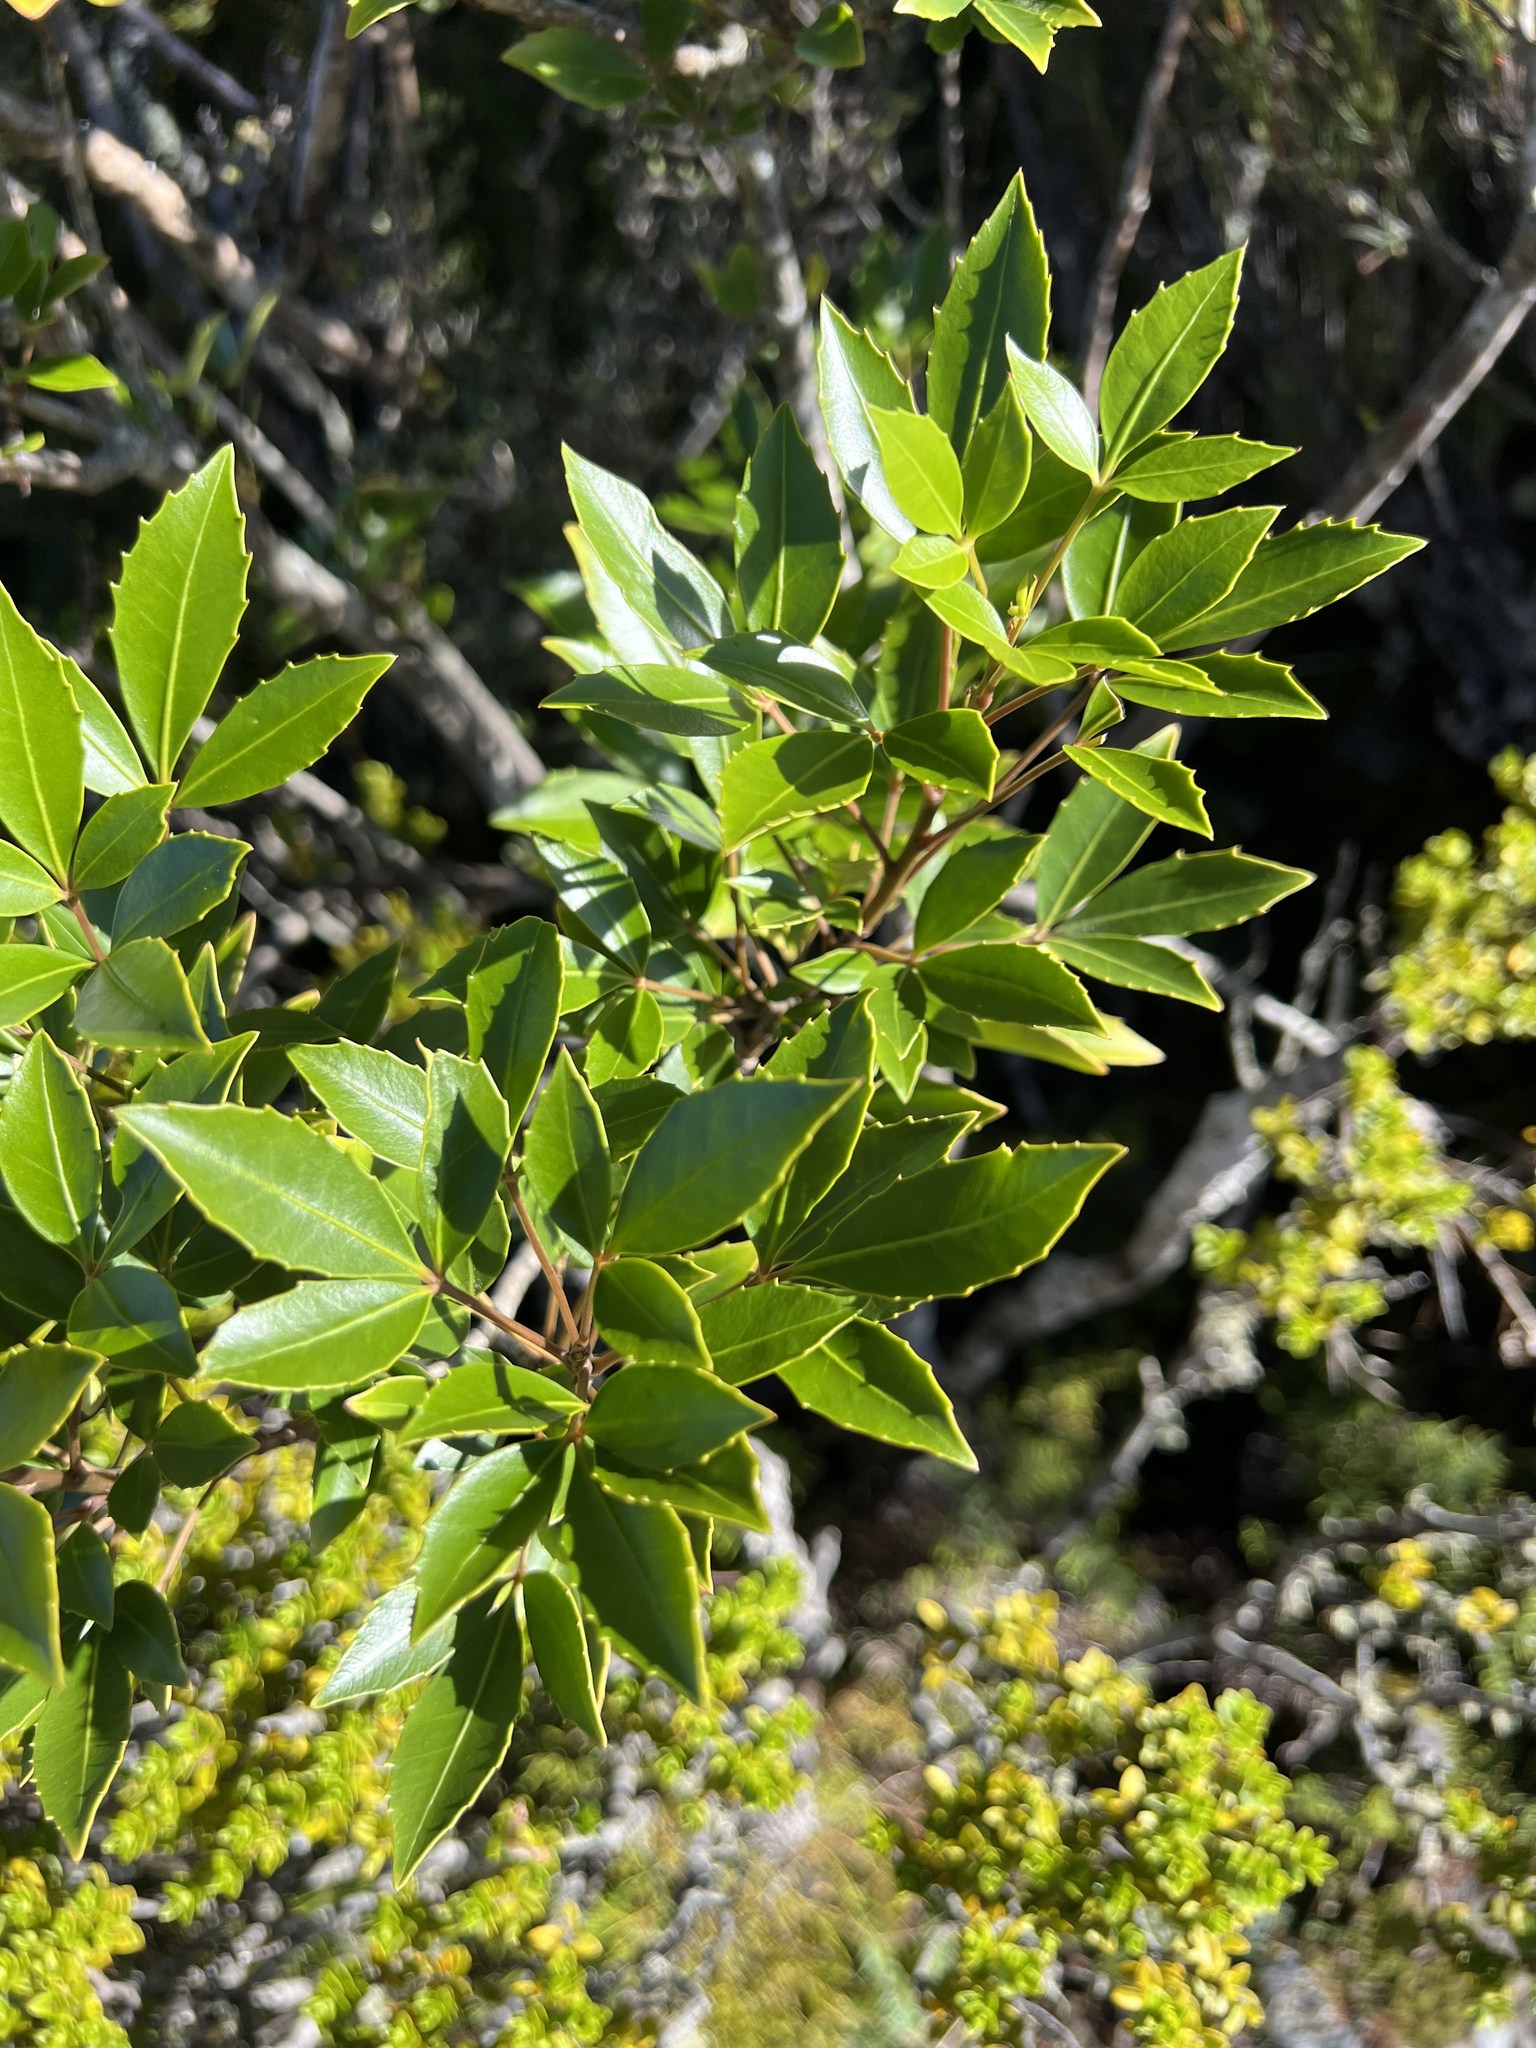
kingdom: Plantae
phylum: Tracheophyta
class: Magnoliopsida
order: Apiales
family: Araliaceae
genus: Raukaua
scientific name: Raukaua simplex
